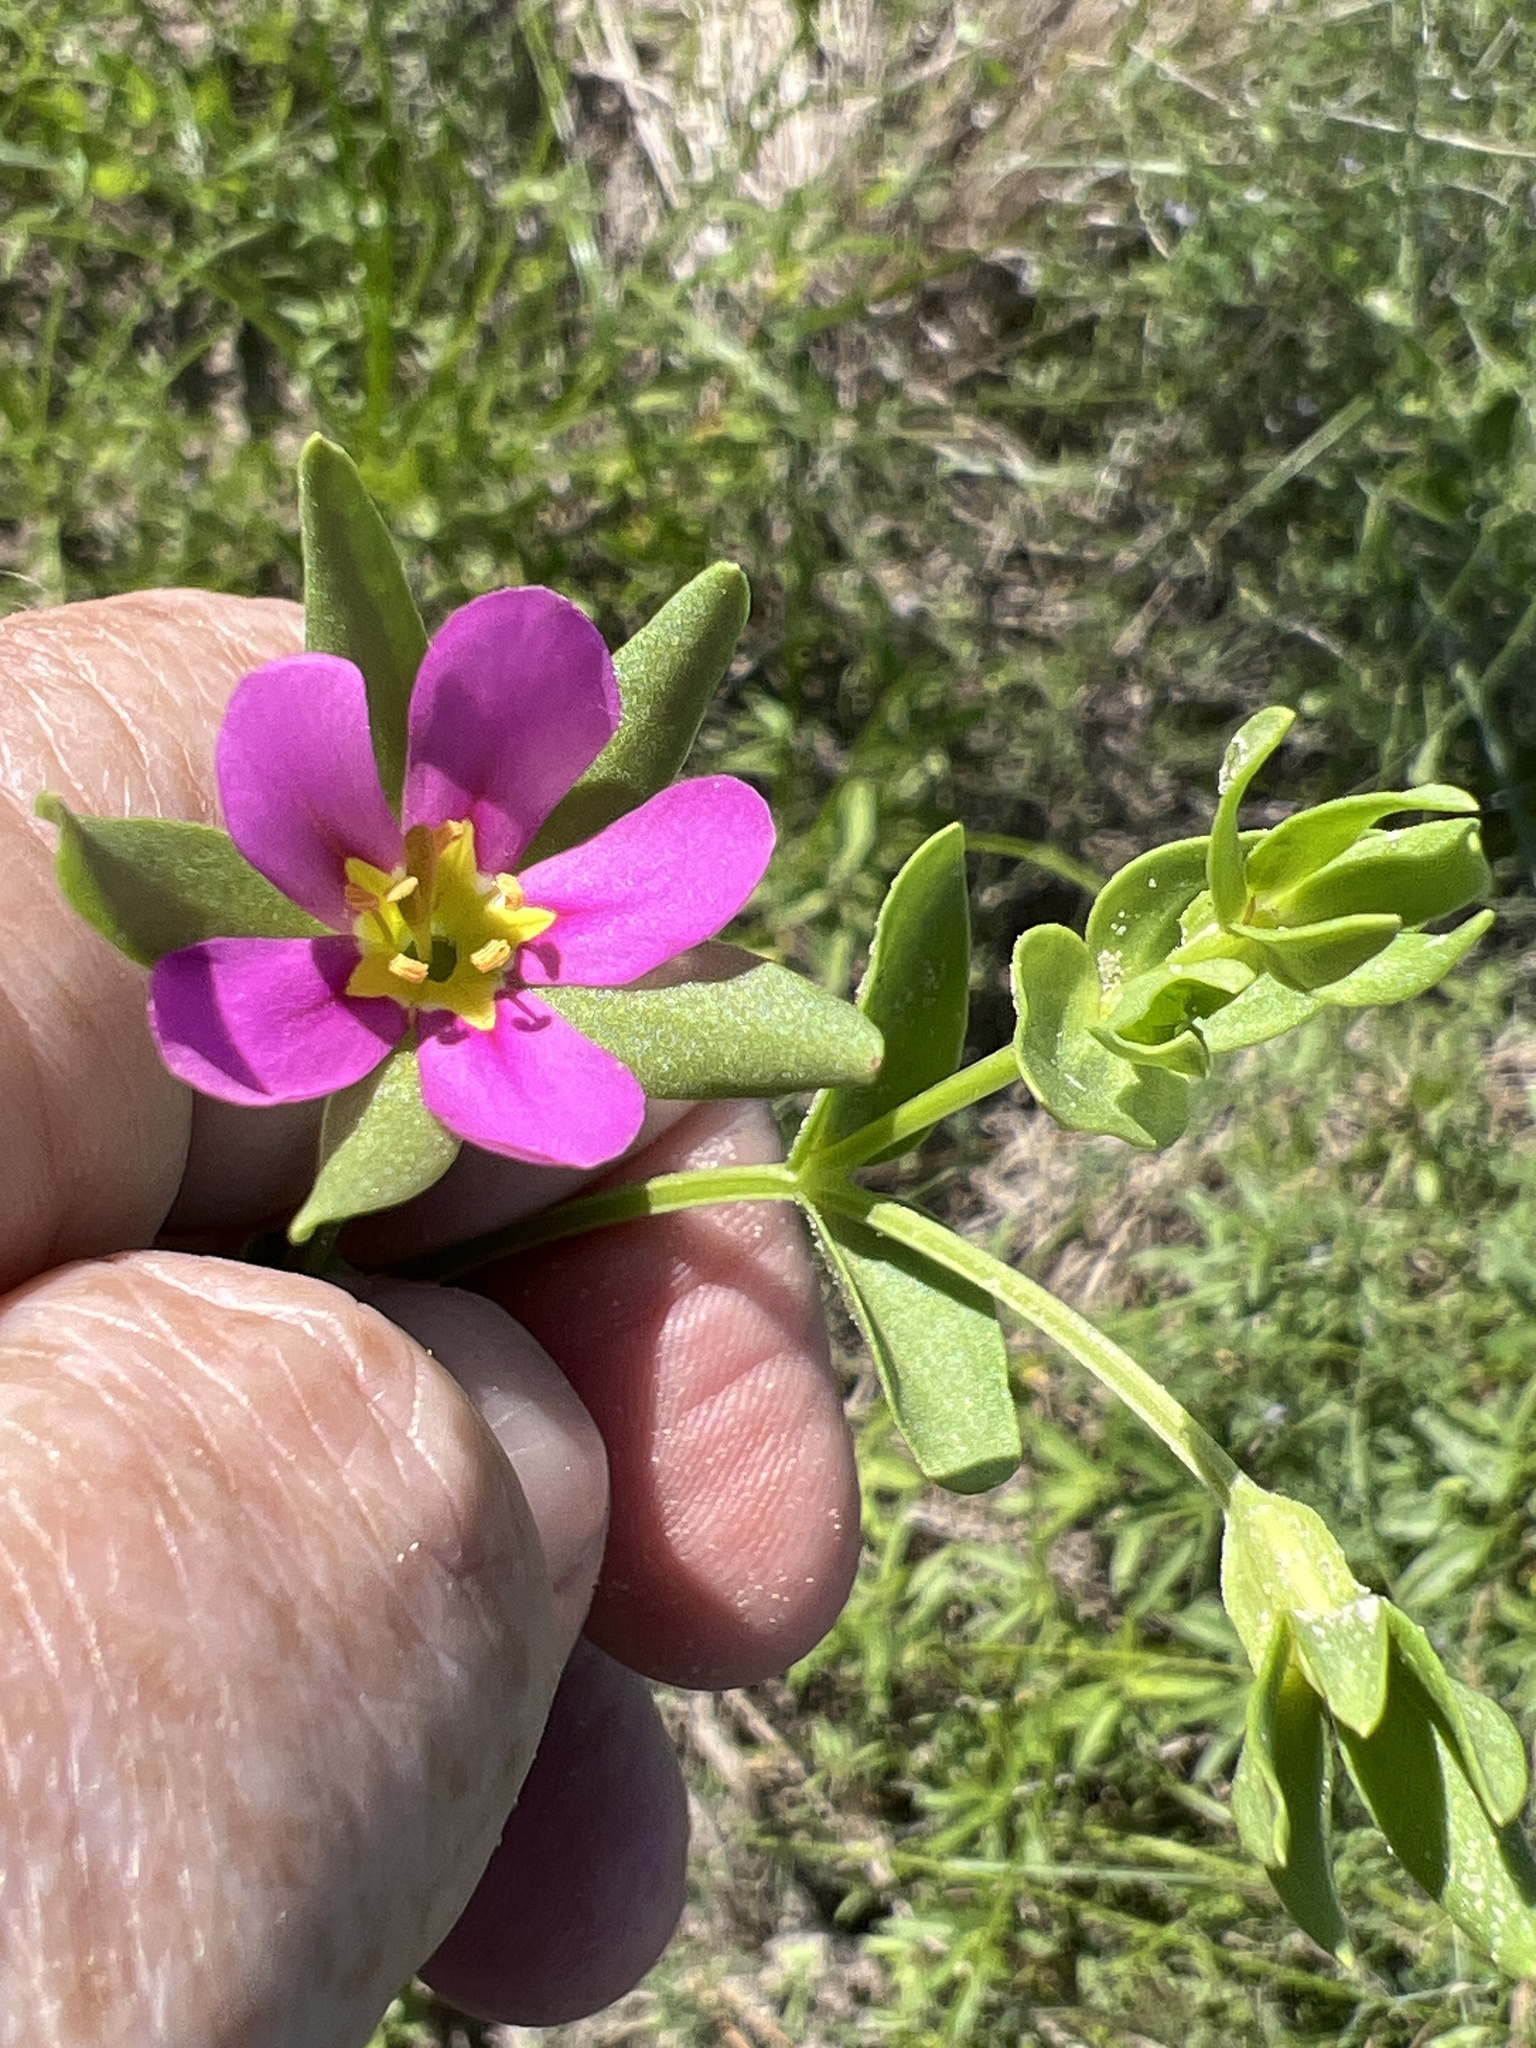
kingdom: Plantae
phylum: Tracheophyta
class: Magnoliopsida
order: Gentianales
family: Gentianaceae
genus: Sabatia
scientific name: Sabatia campestris
